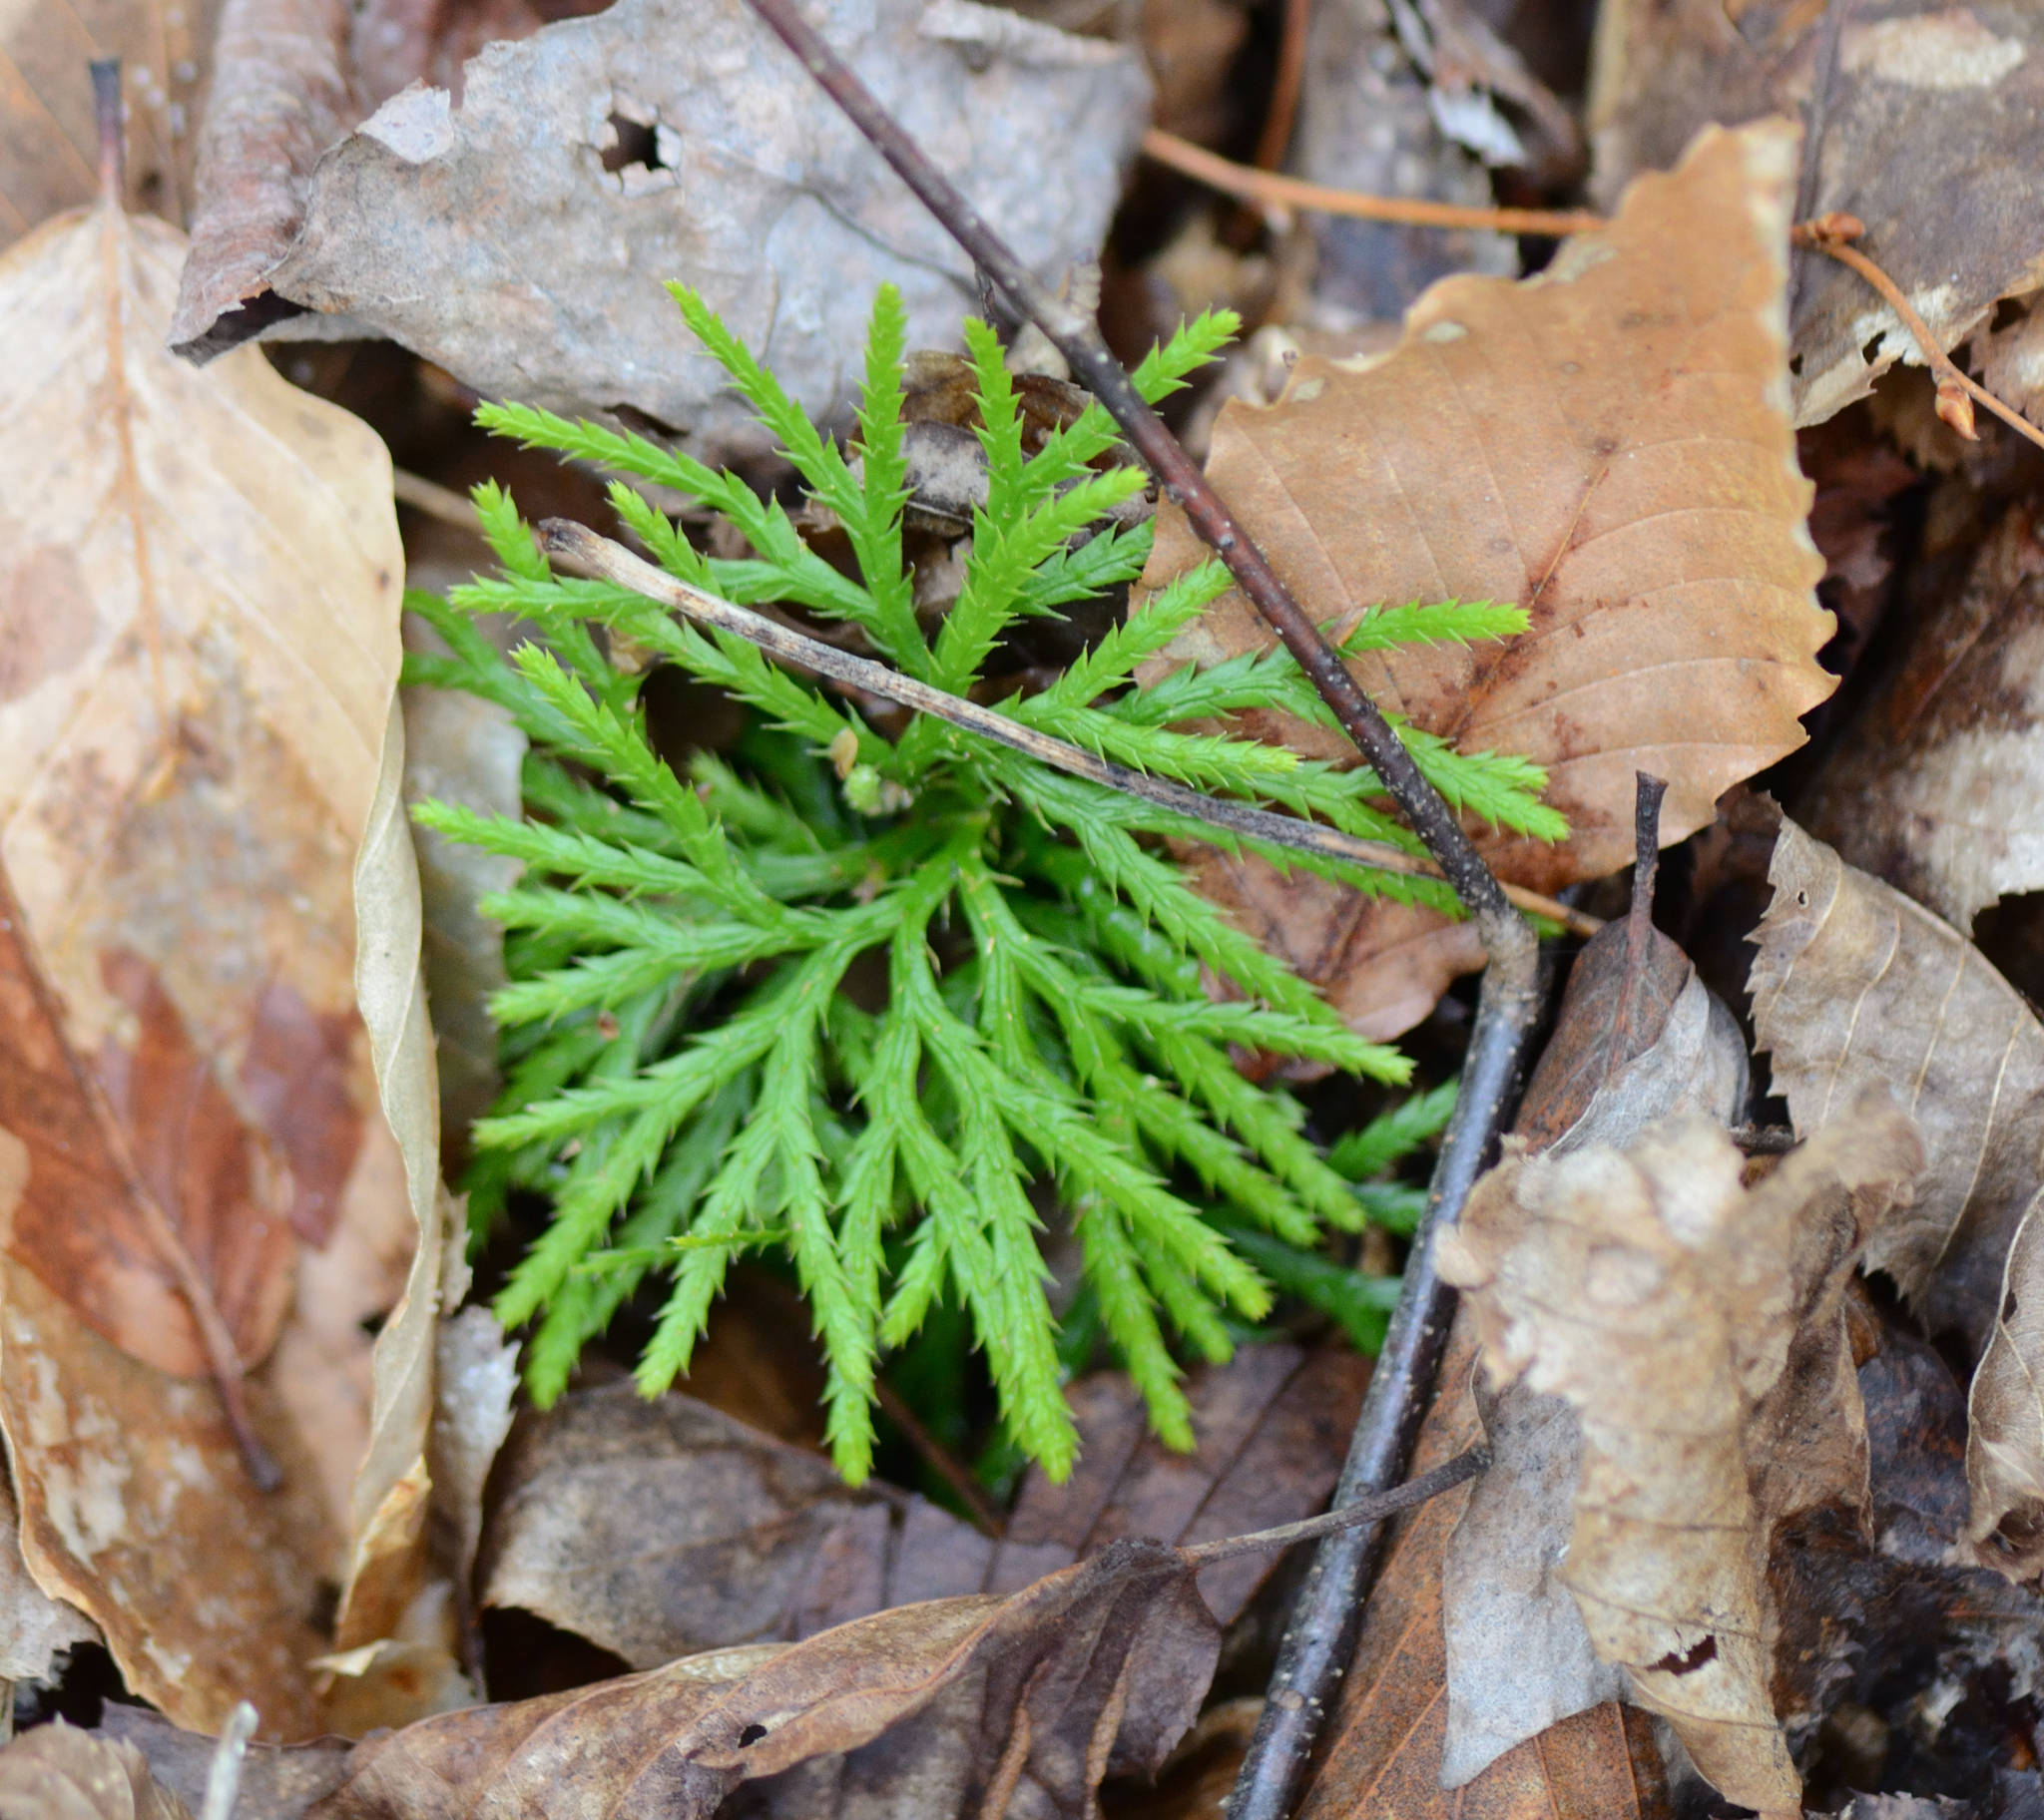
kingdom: Plantae
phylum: Tracheophyta
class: Lycopodiopsida
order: Lycopodiales
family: Lycopodiaceae
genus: Diphasiastrum
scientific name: Diphasiastrum digitatum
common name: Southern running-pine
